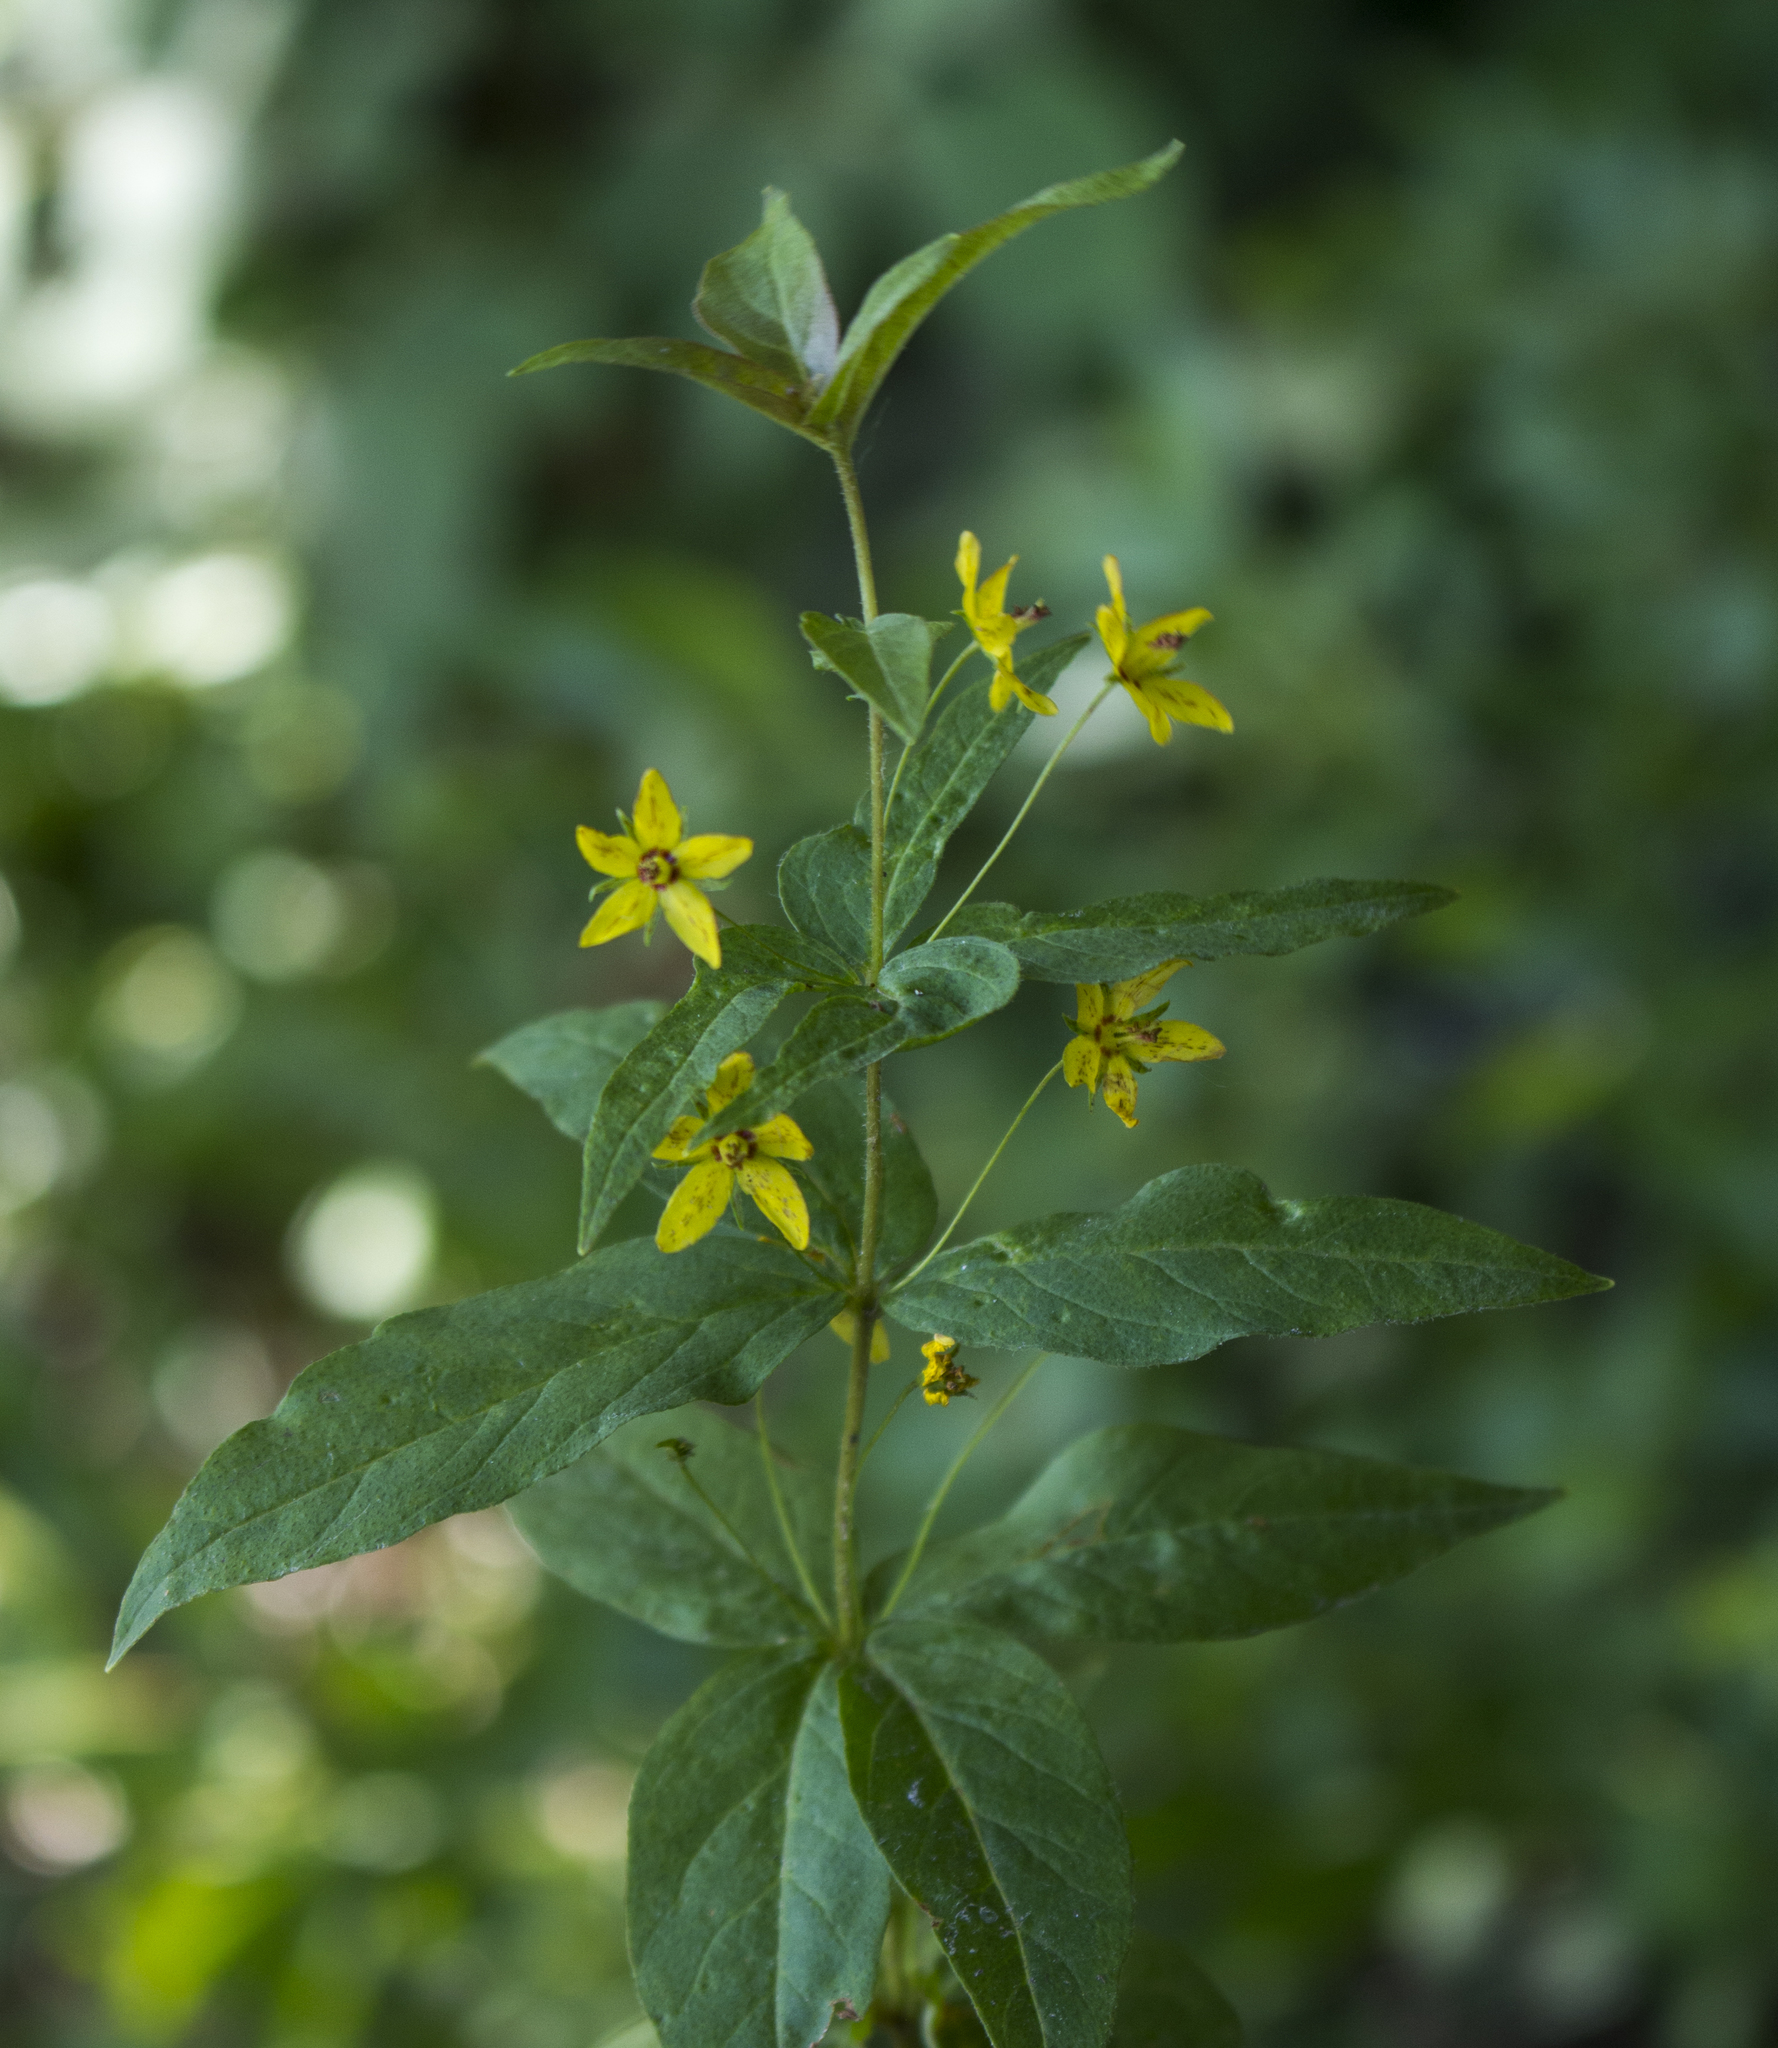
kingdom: Plantae
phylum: Tracheophyta
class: Magnoliopsida
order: Ericales
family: Primulaceae
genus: Lysimachia
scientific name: Lysimachia quadrifolia
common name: Whorled loosestrife
